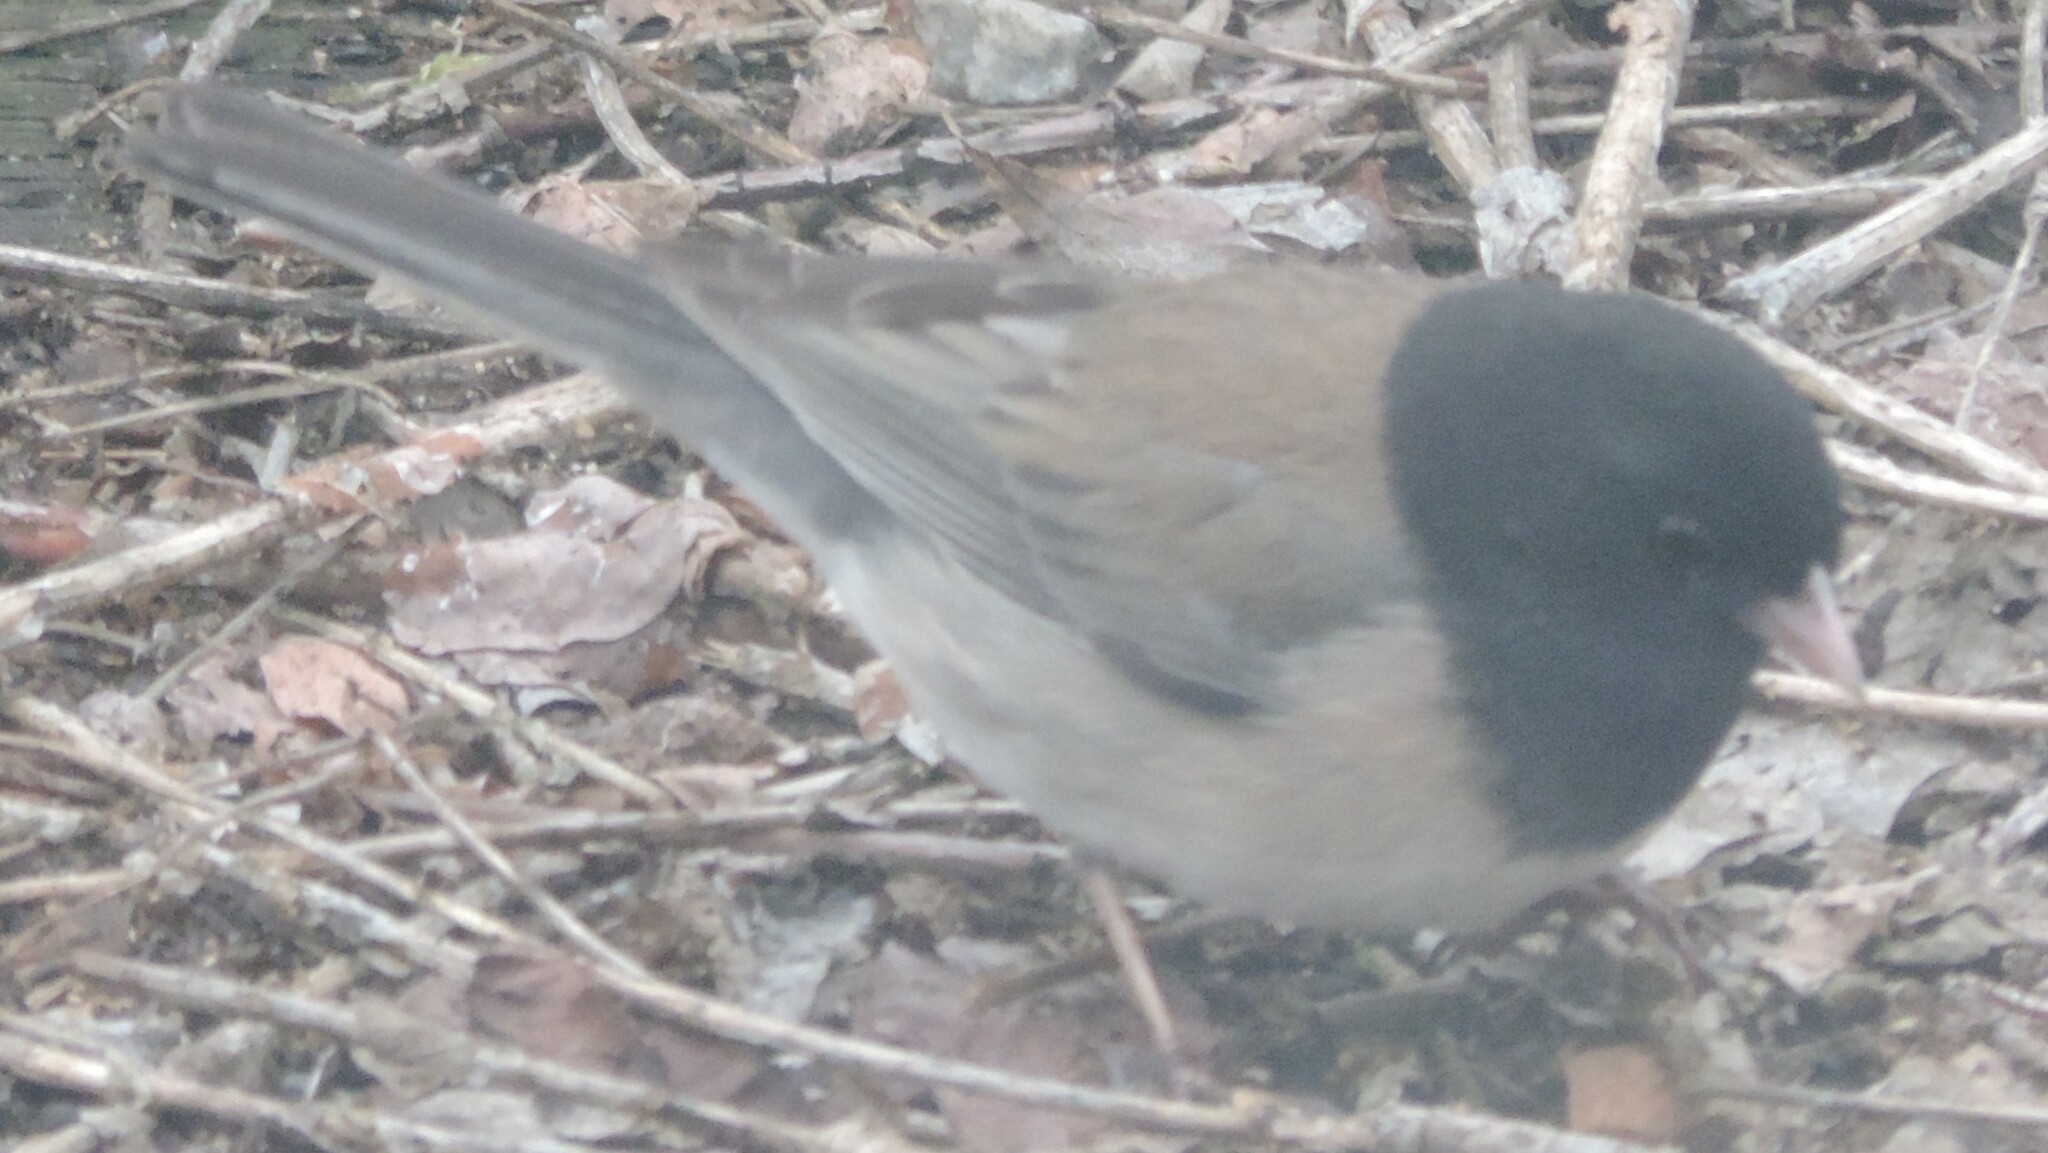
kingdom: Animalia
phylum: Chordata
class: Aves
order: Passeriformes
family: Passerellidae
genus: Junco
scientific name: Junco hyemalis
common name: Dark-eyed junco
